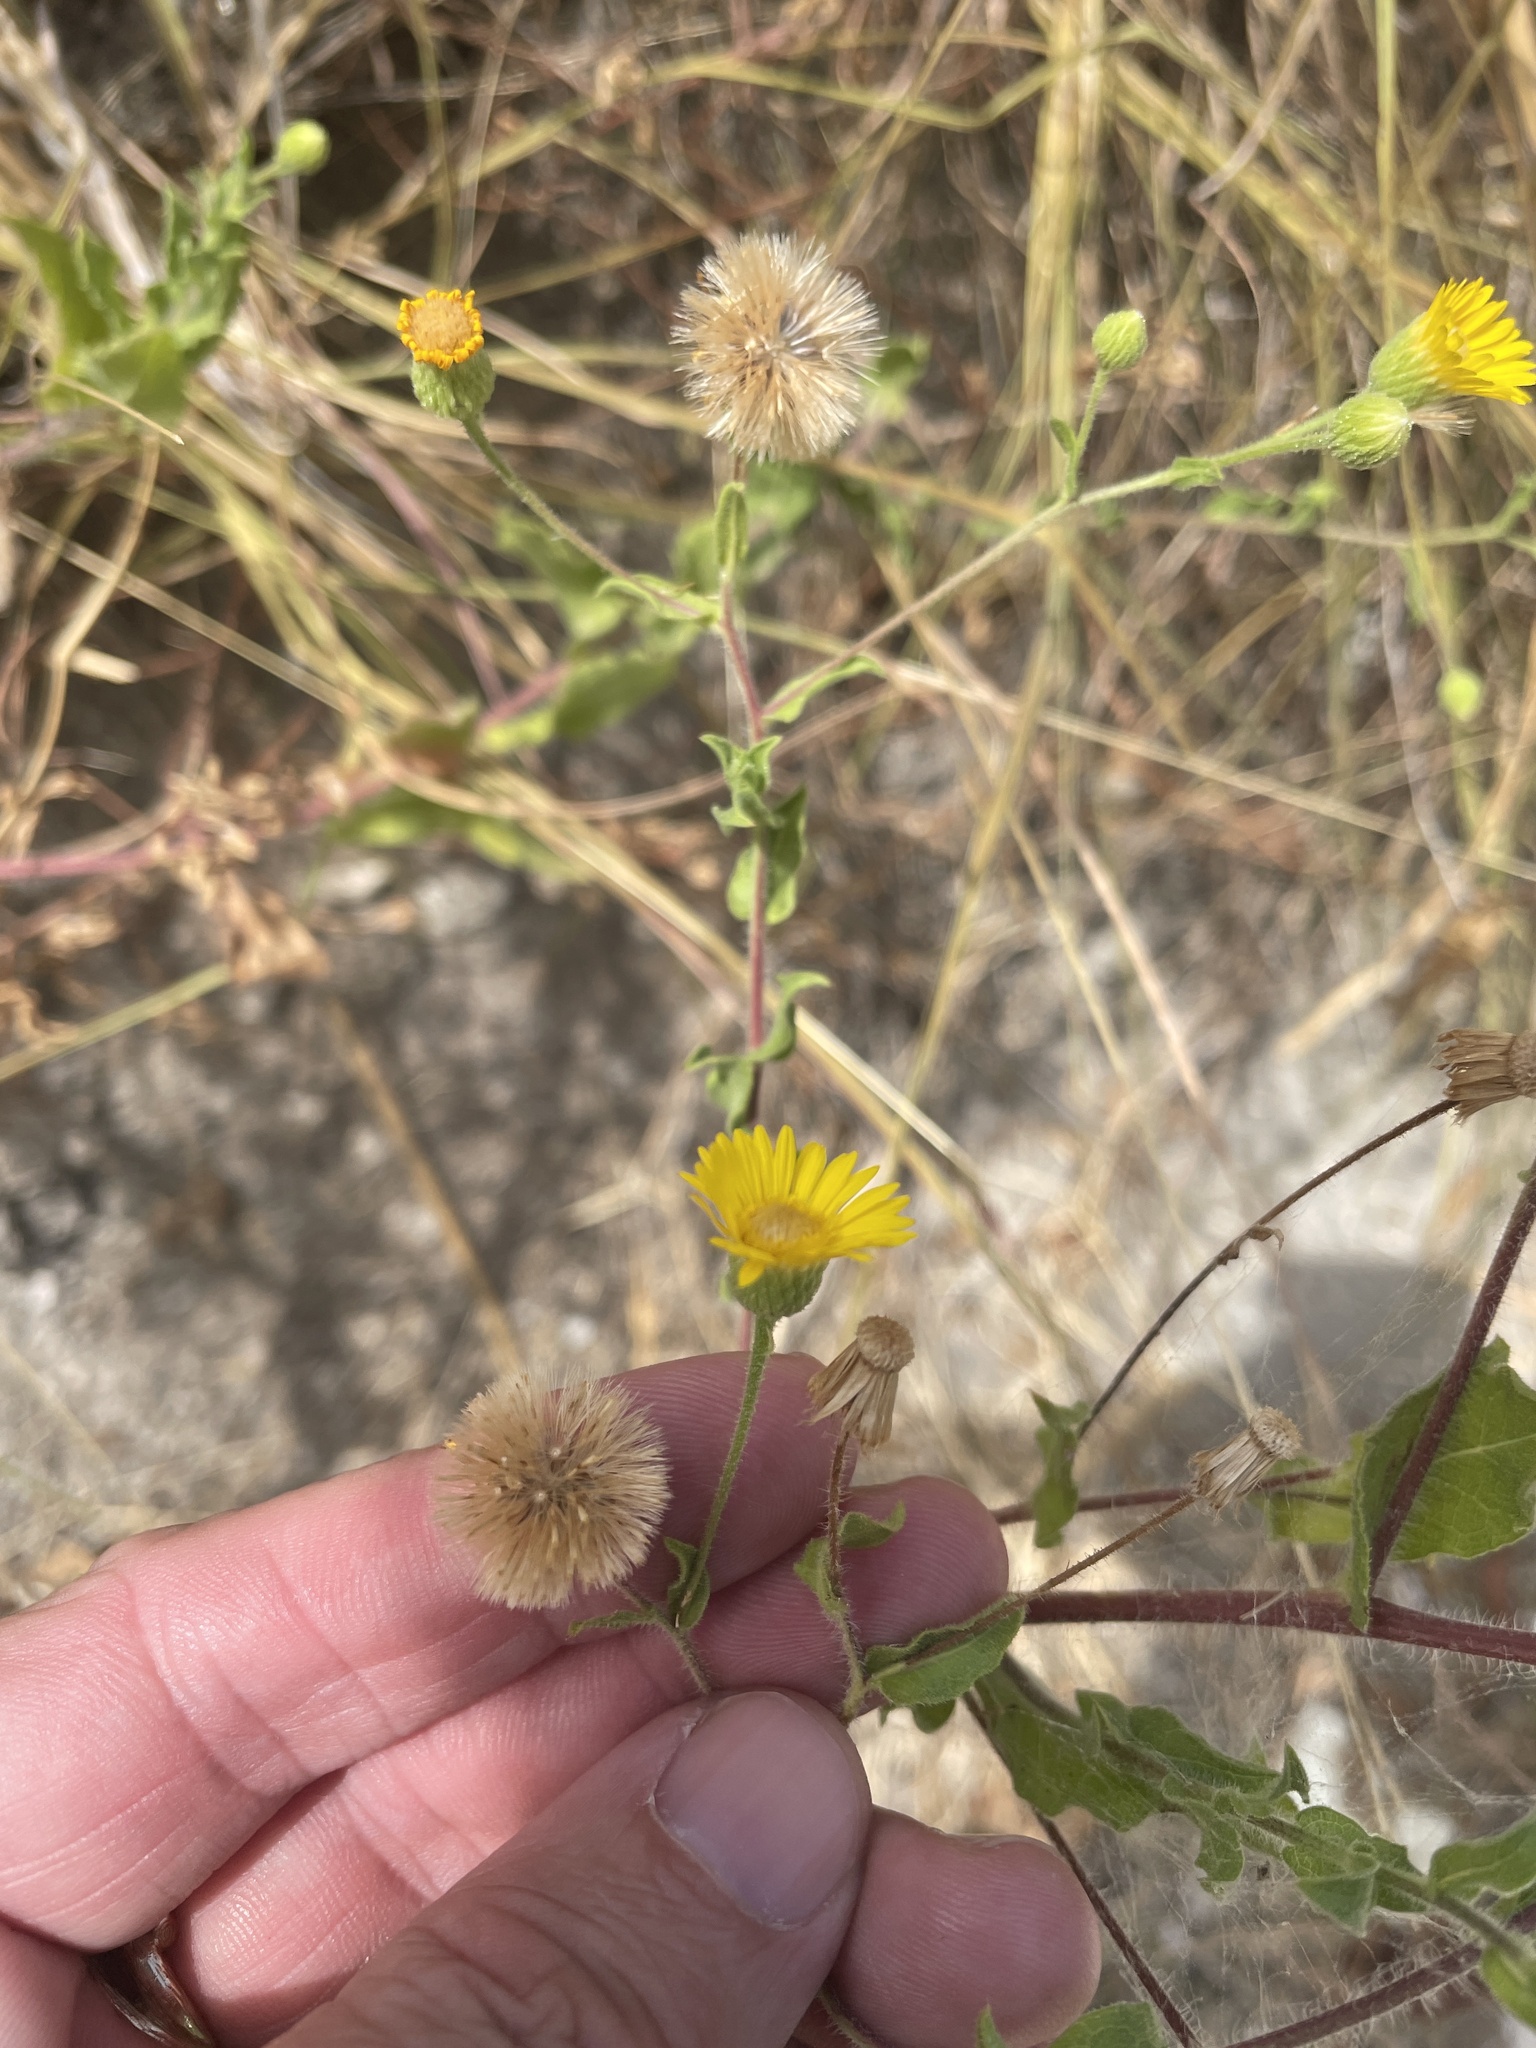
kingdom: Plantae
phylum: Tracheophyta
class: Magnoliopsida
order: Asterales
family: Asteraceae
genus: Heterotheca
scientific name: Heterotheca subaxillaris
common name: Camphorweed
